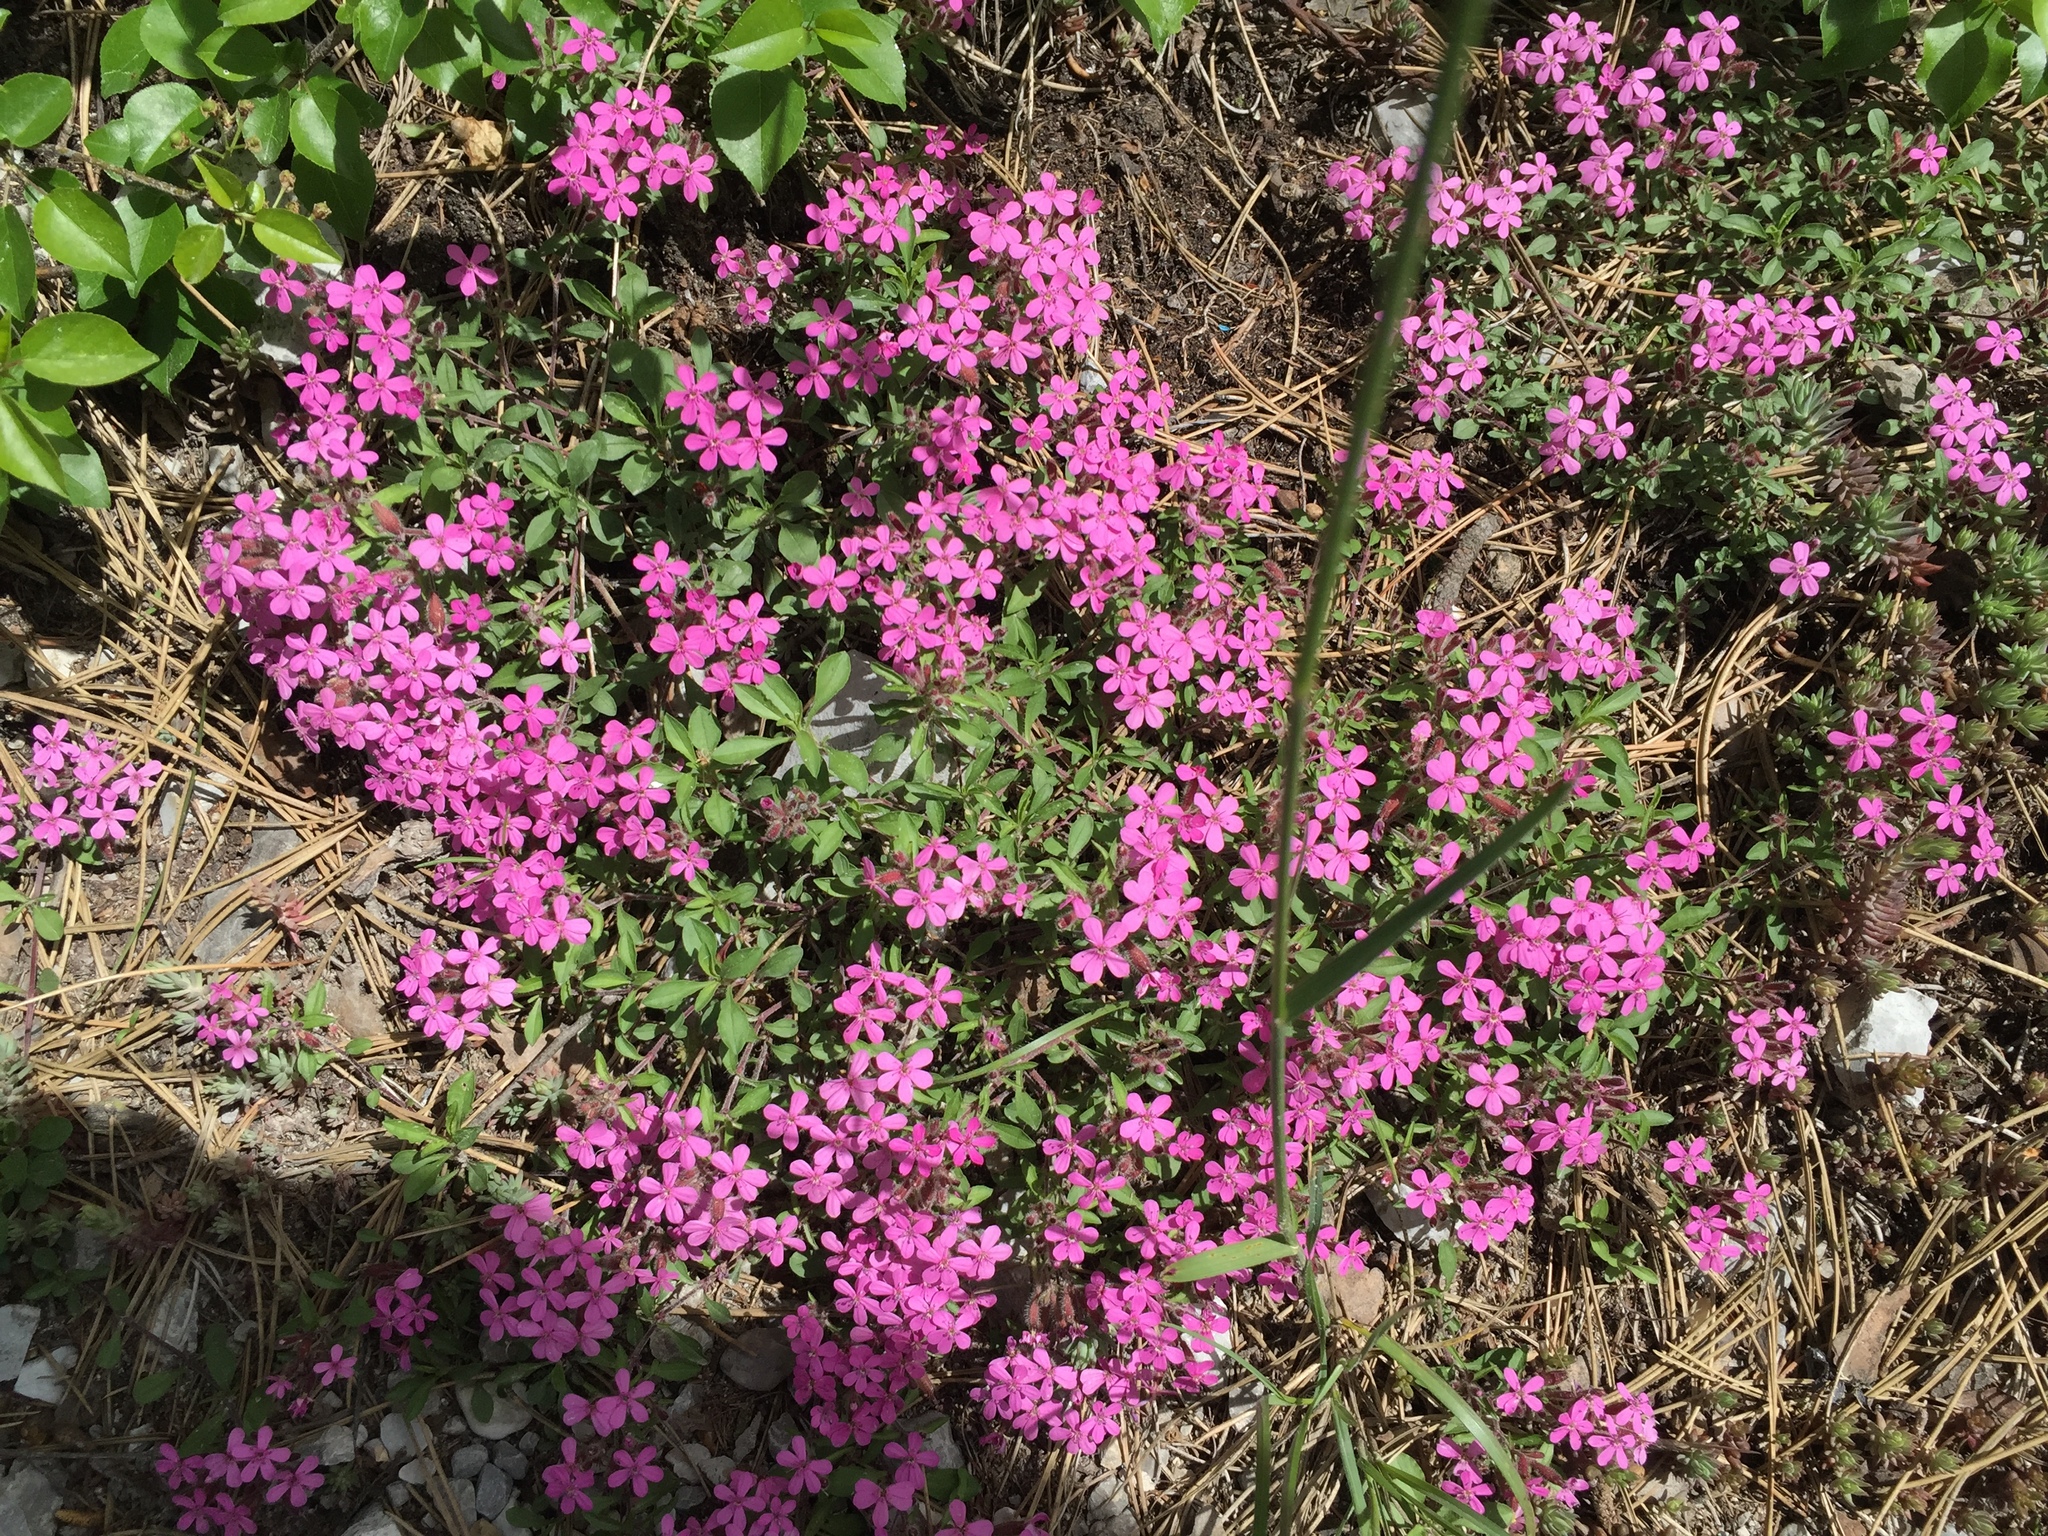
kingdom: Plantae
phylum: Tracheophyta
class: Magnoliopsida
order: Caryophyllales
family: Caryophyllaceae
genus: Saponaria
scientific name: Saponaria ocymoides
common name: Rock soapwort
